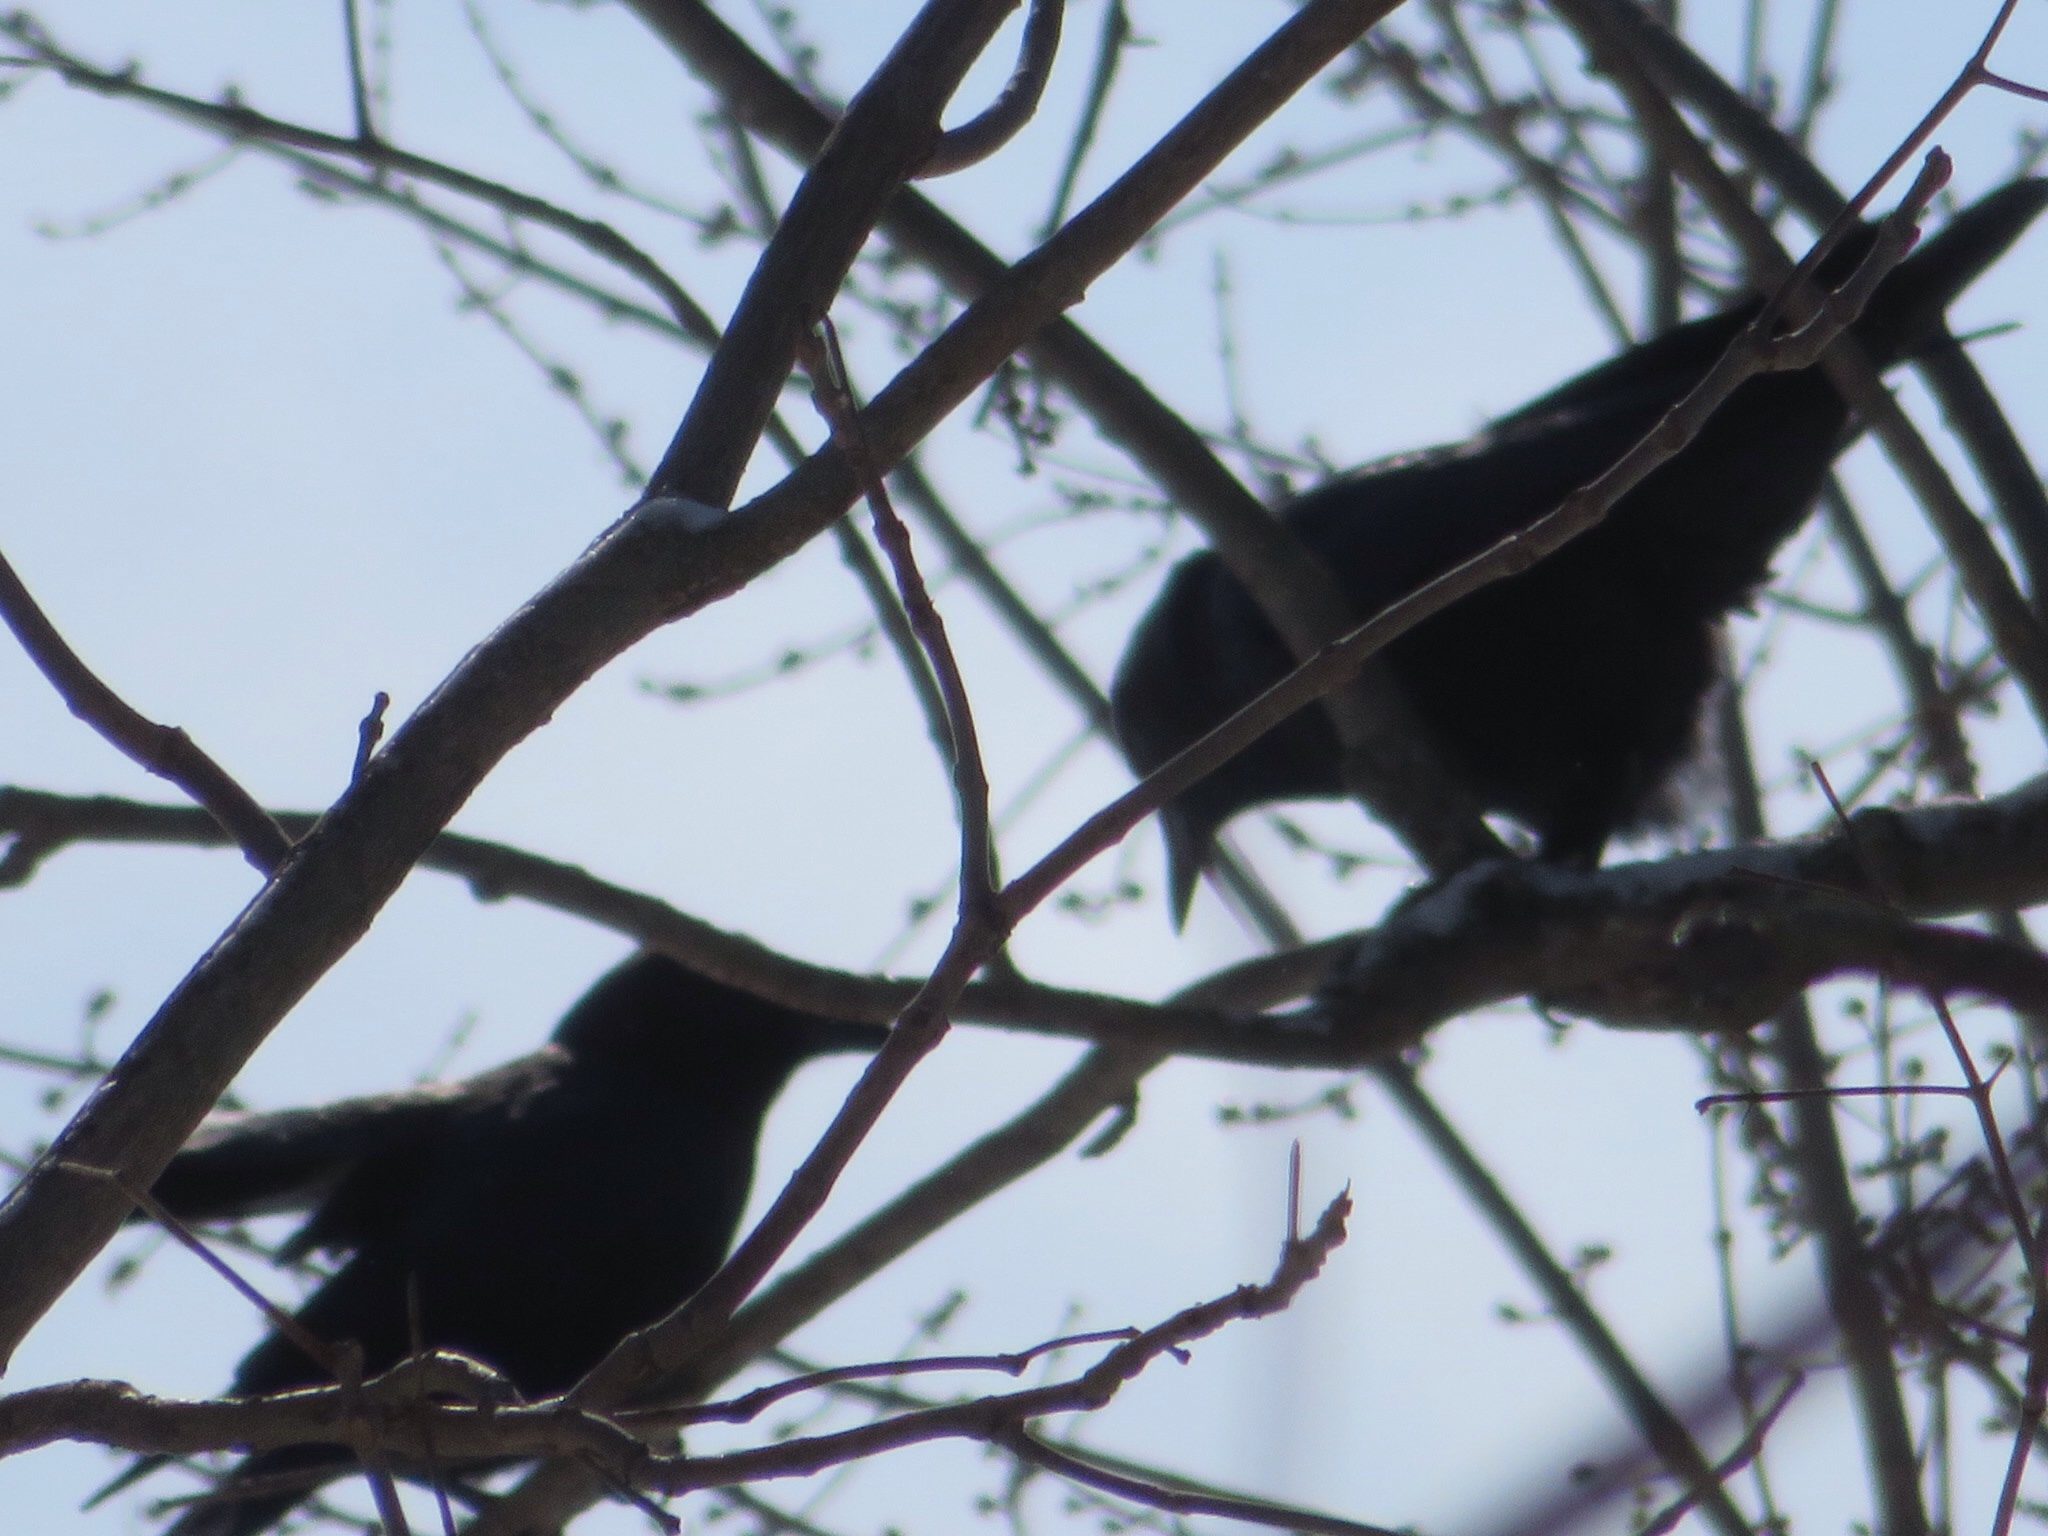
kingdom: Animalia
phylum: Chordata
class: Aves
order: Passeriformes
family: Corvidae
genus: Corvus
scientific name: Corvus brachyrhynchos
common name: American crow
